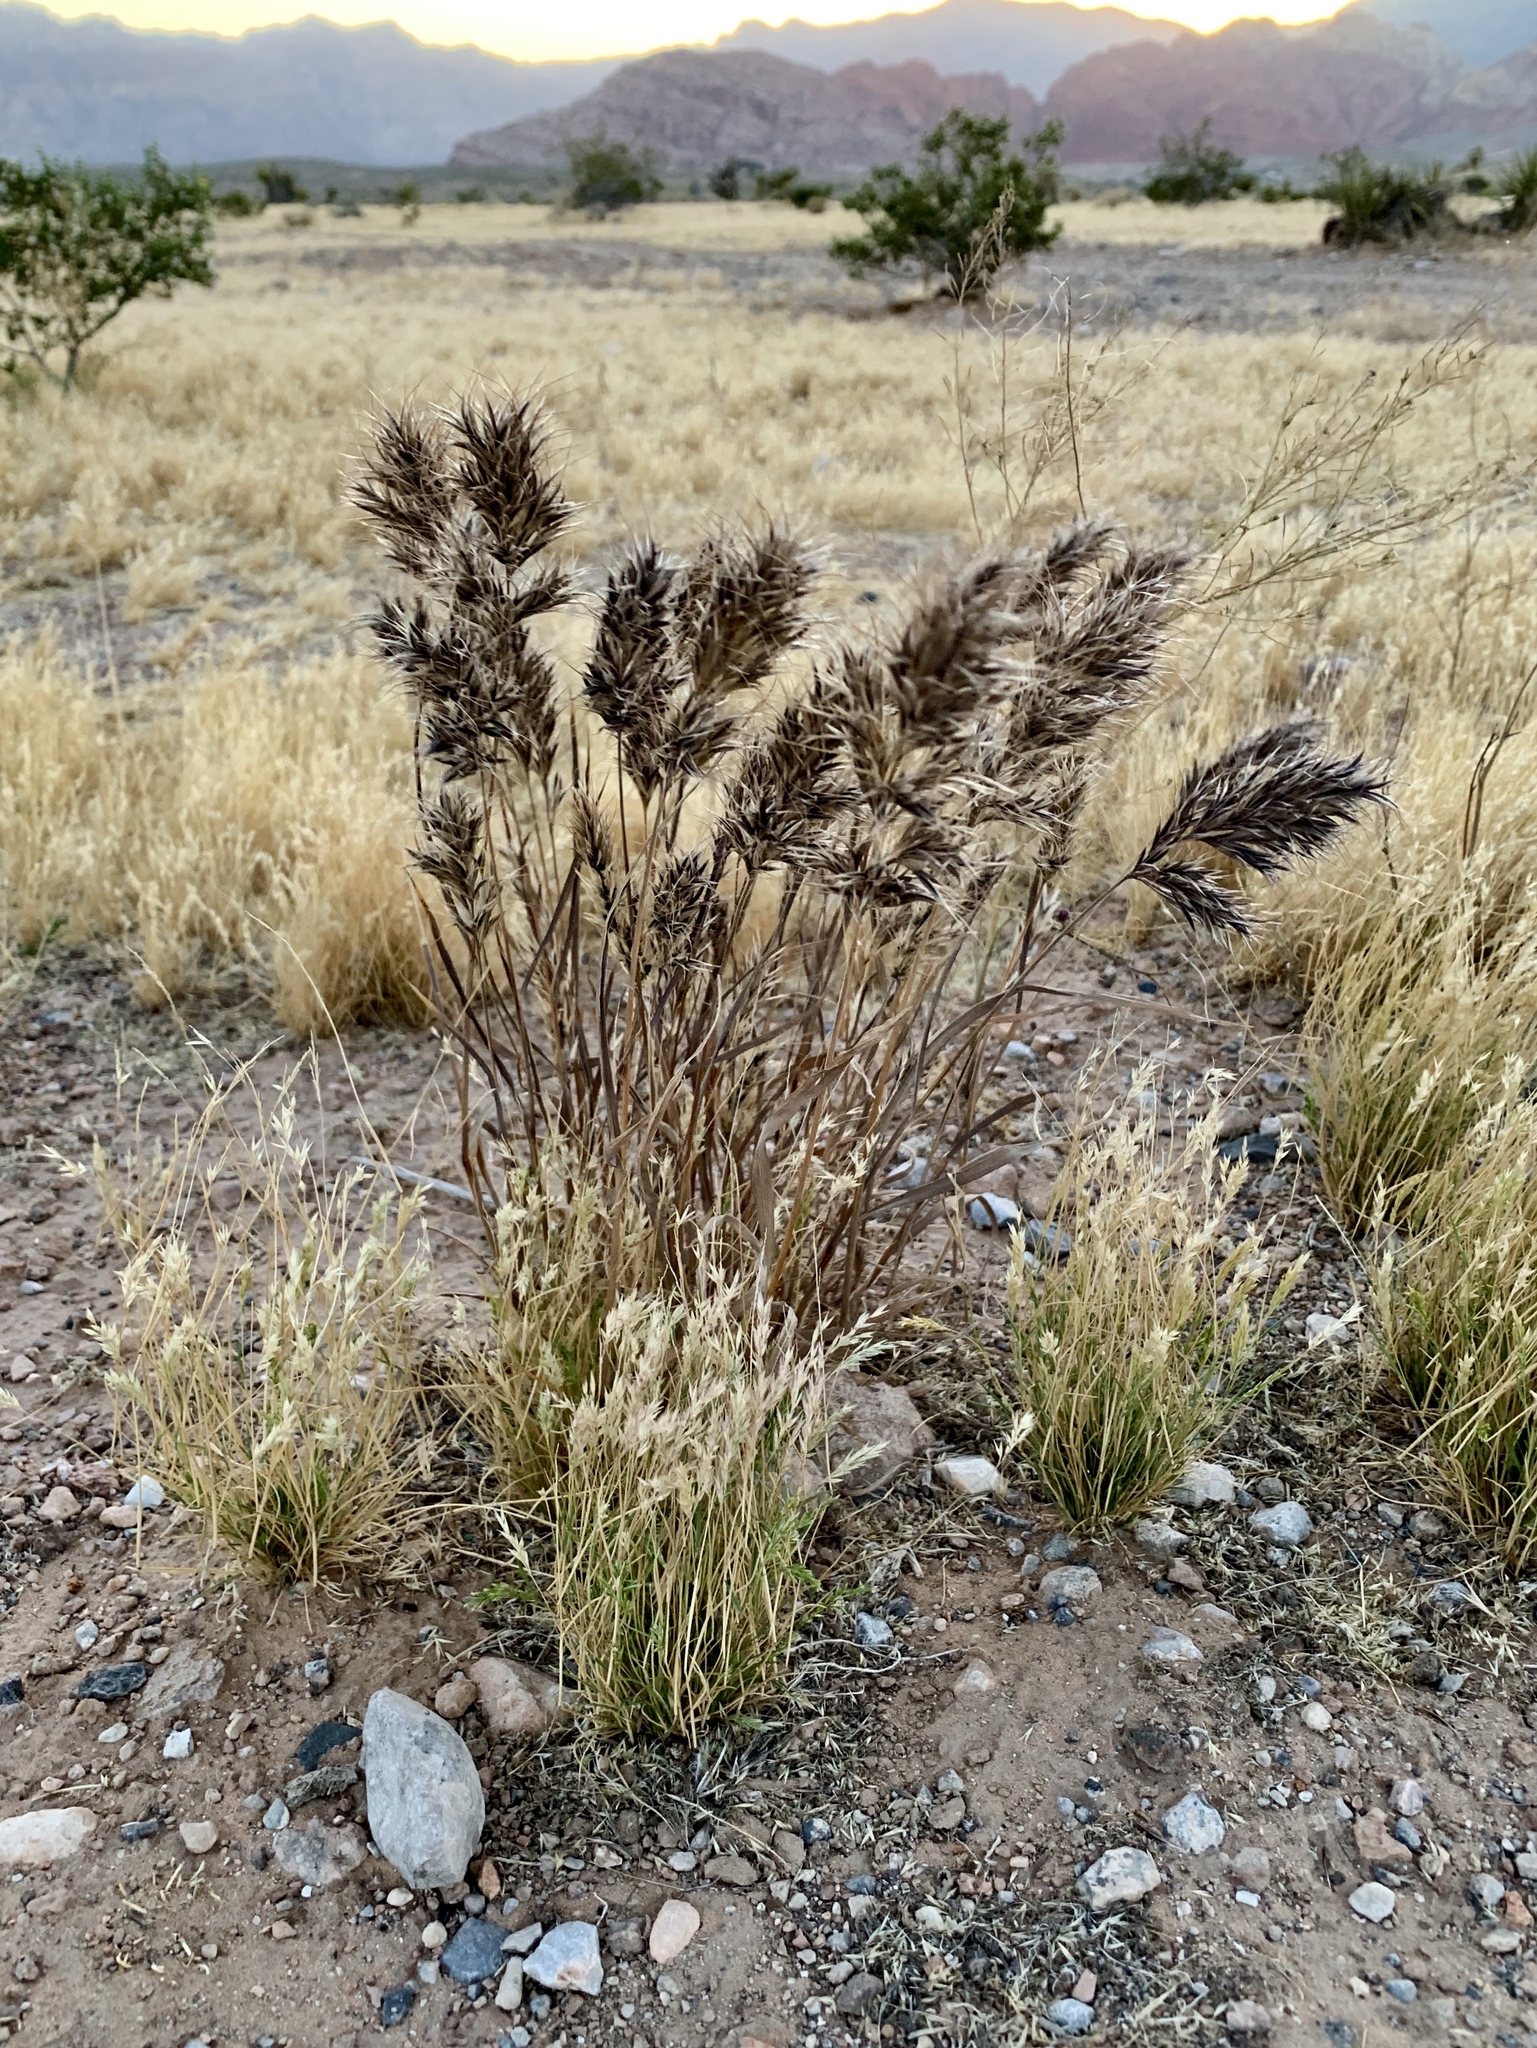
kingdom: Plantae
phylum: Tracheophyta
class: Liliopsida
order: Poales
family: Poaceae
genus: Bromus
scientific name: Bromus rubens
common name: Red brome
